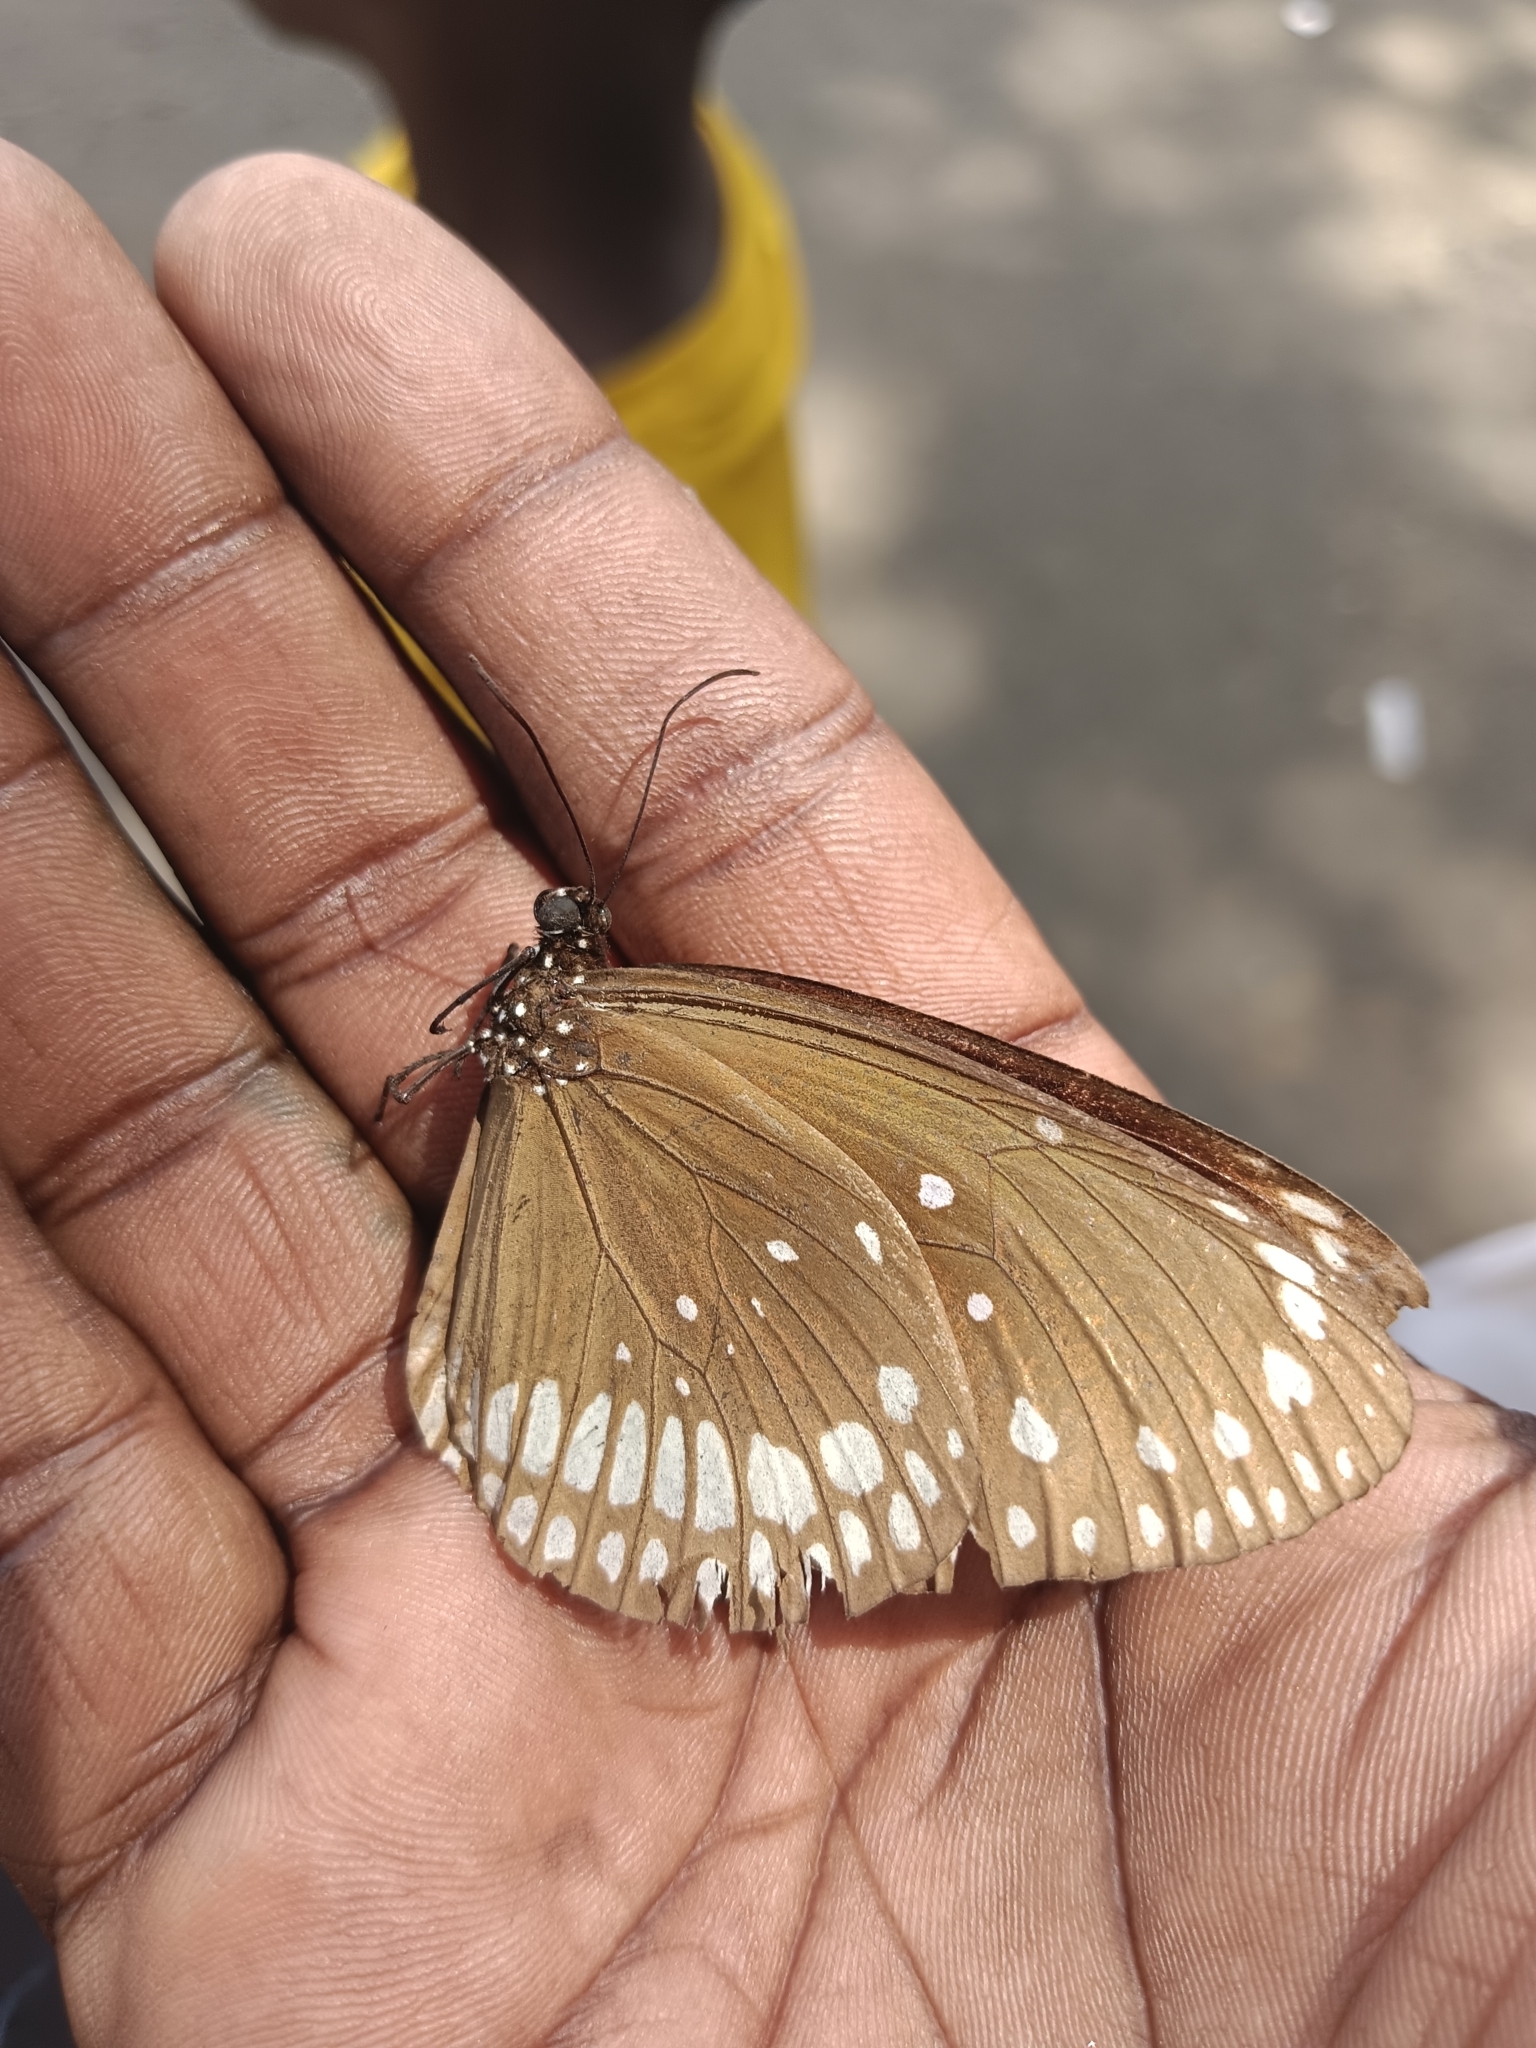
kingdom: Animalia
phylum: Arthropoda
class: Insecta
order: Lepidoptera
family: Nymphalidae
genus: Euploea
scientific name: Euploea core
